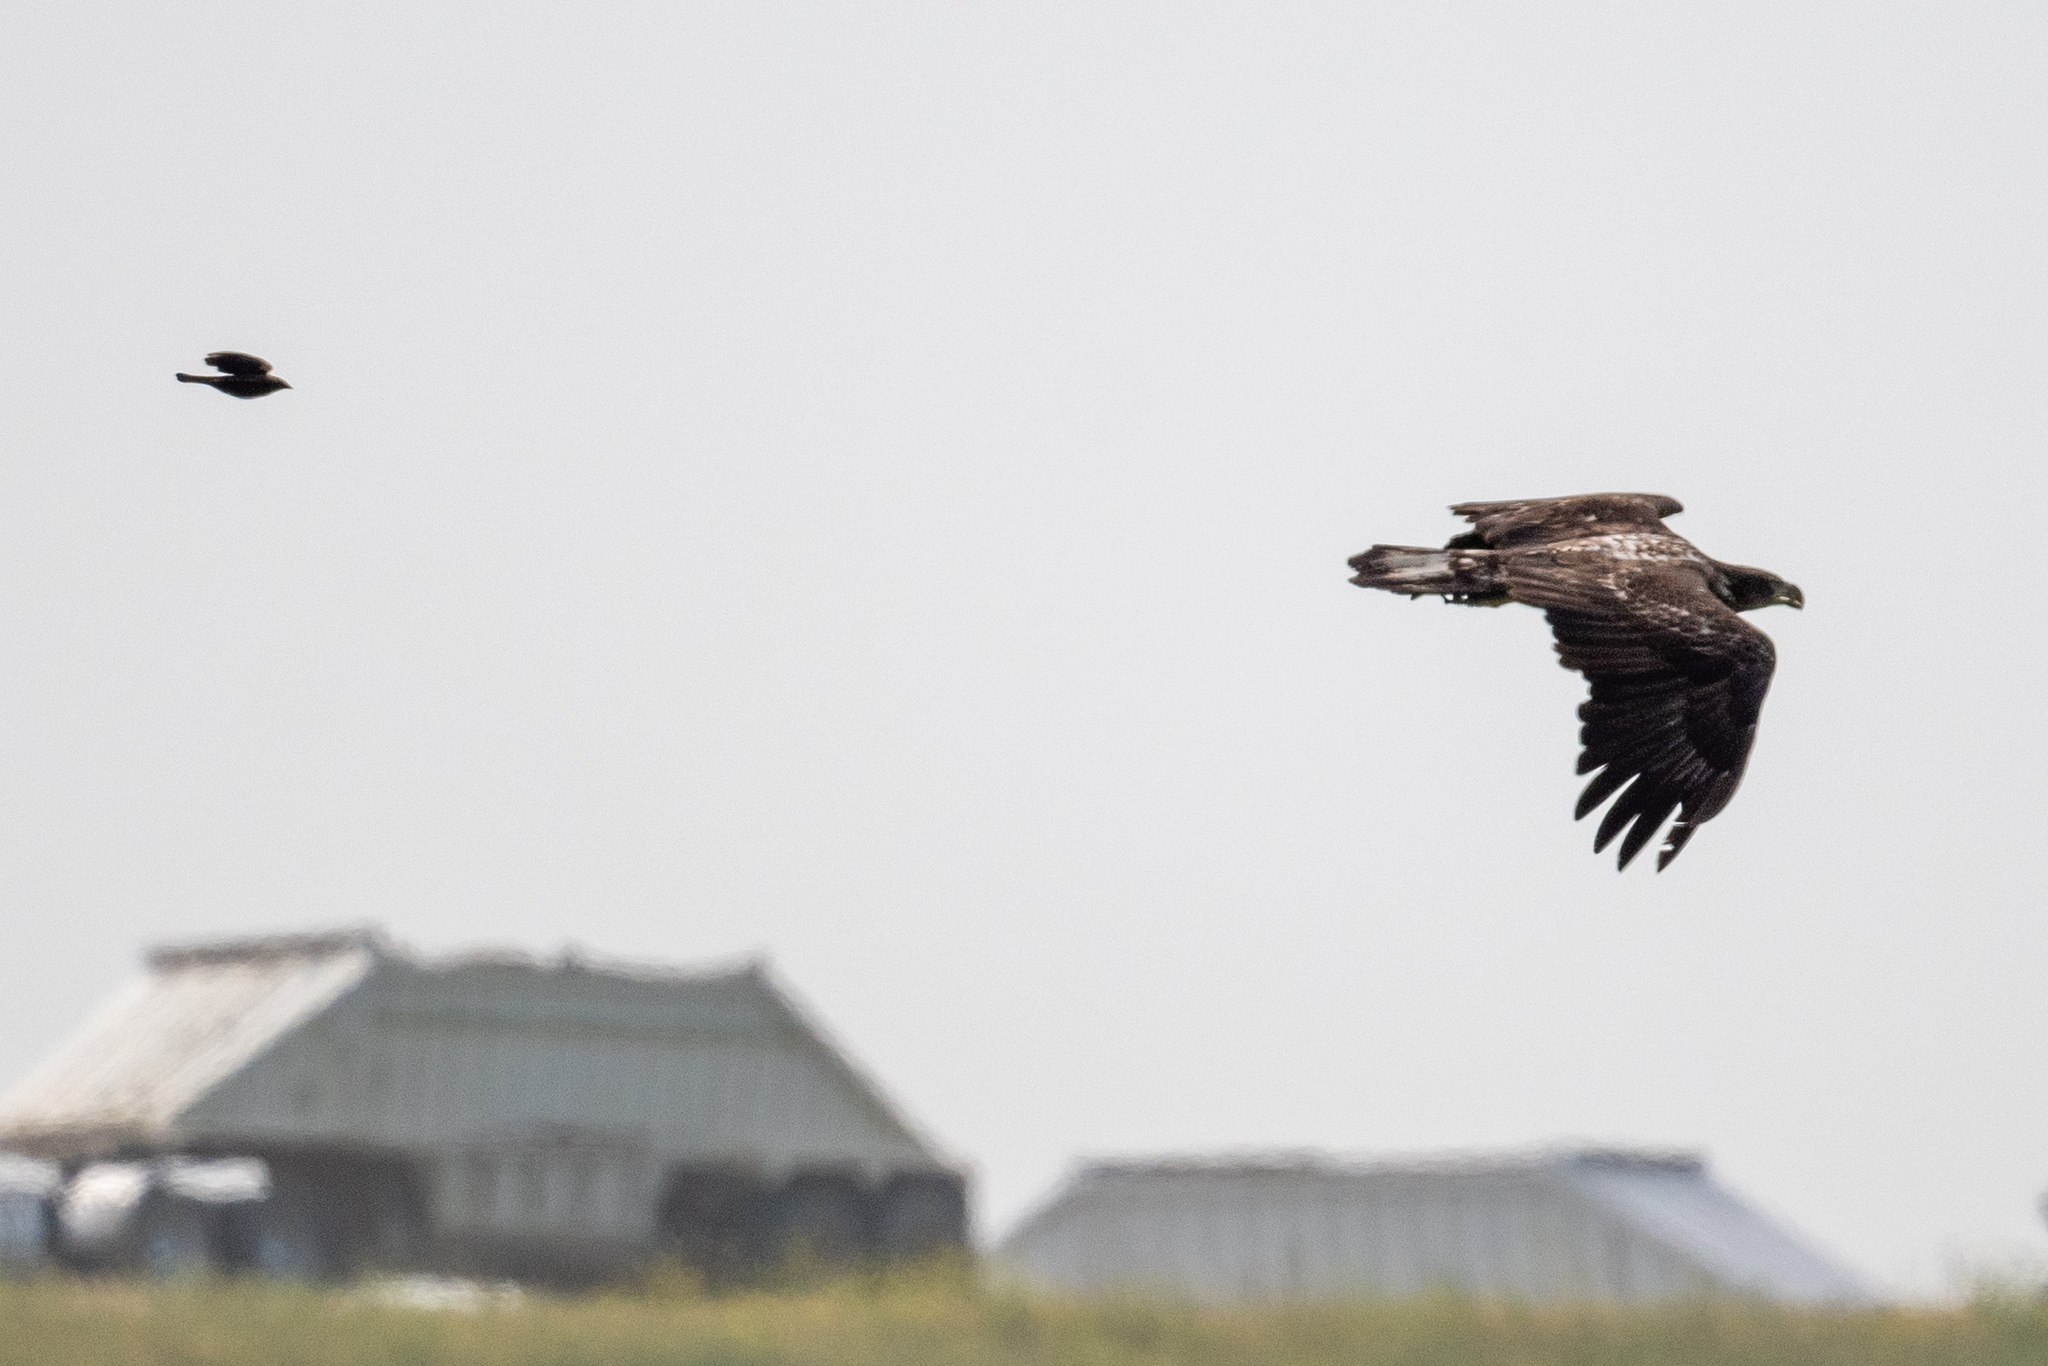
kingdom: Animalia
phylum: Chordata
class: Aves
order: Accipitriformes
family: Accipitridae
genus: Haliaeetus
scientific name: Haliaeetus leucocephalus
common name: Bald eagle
